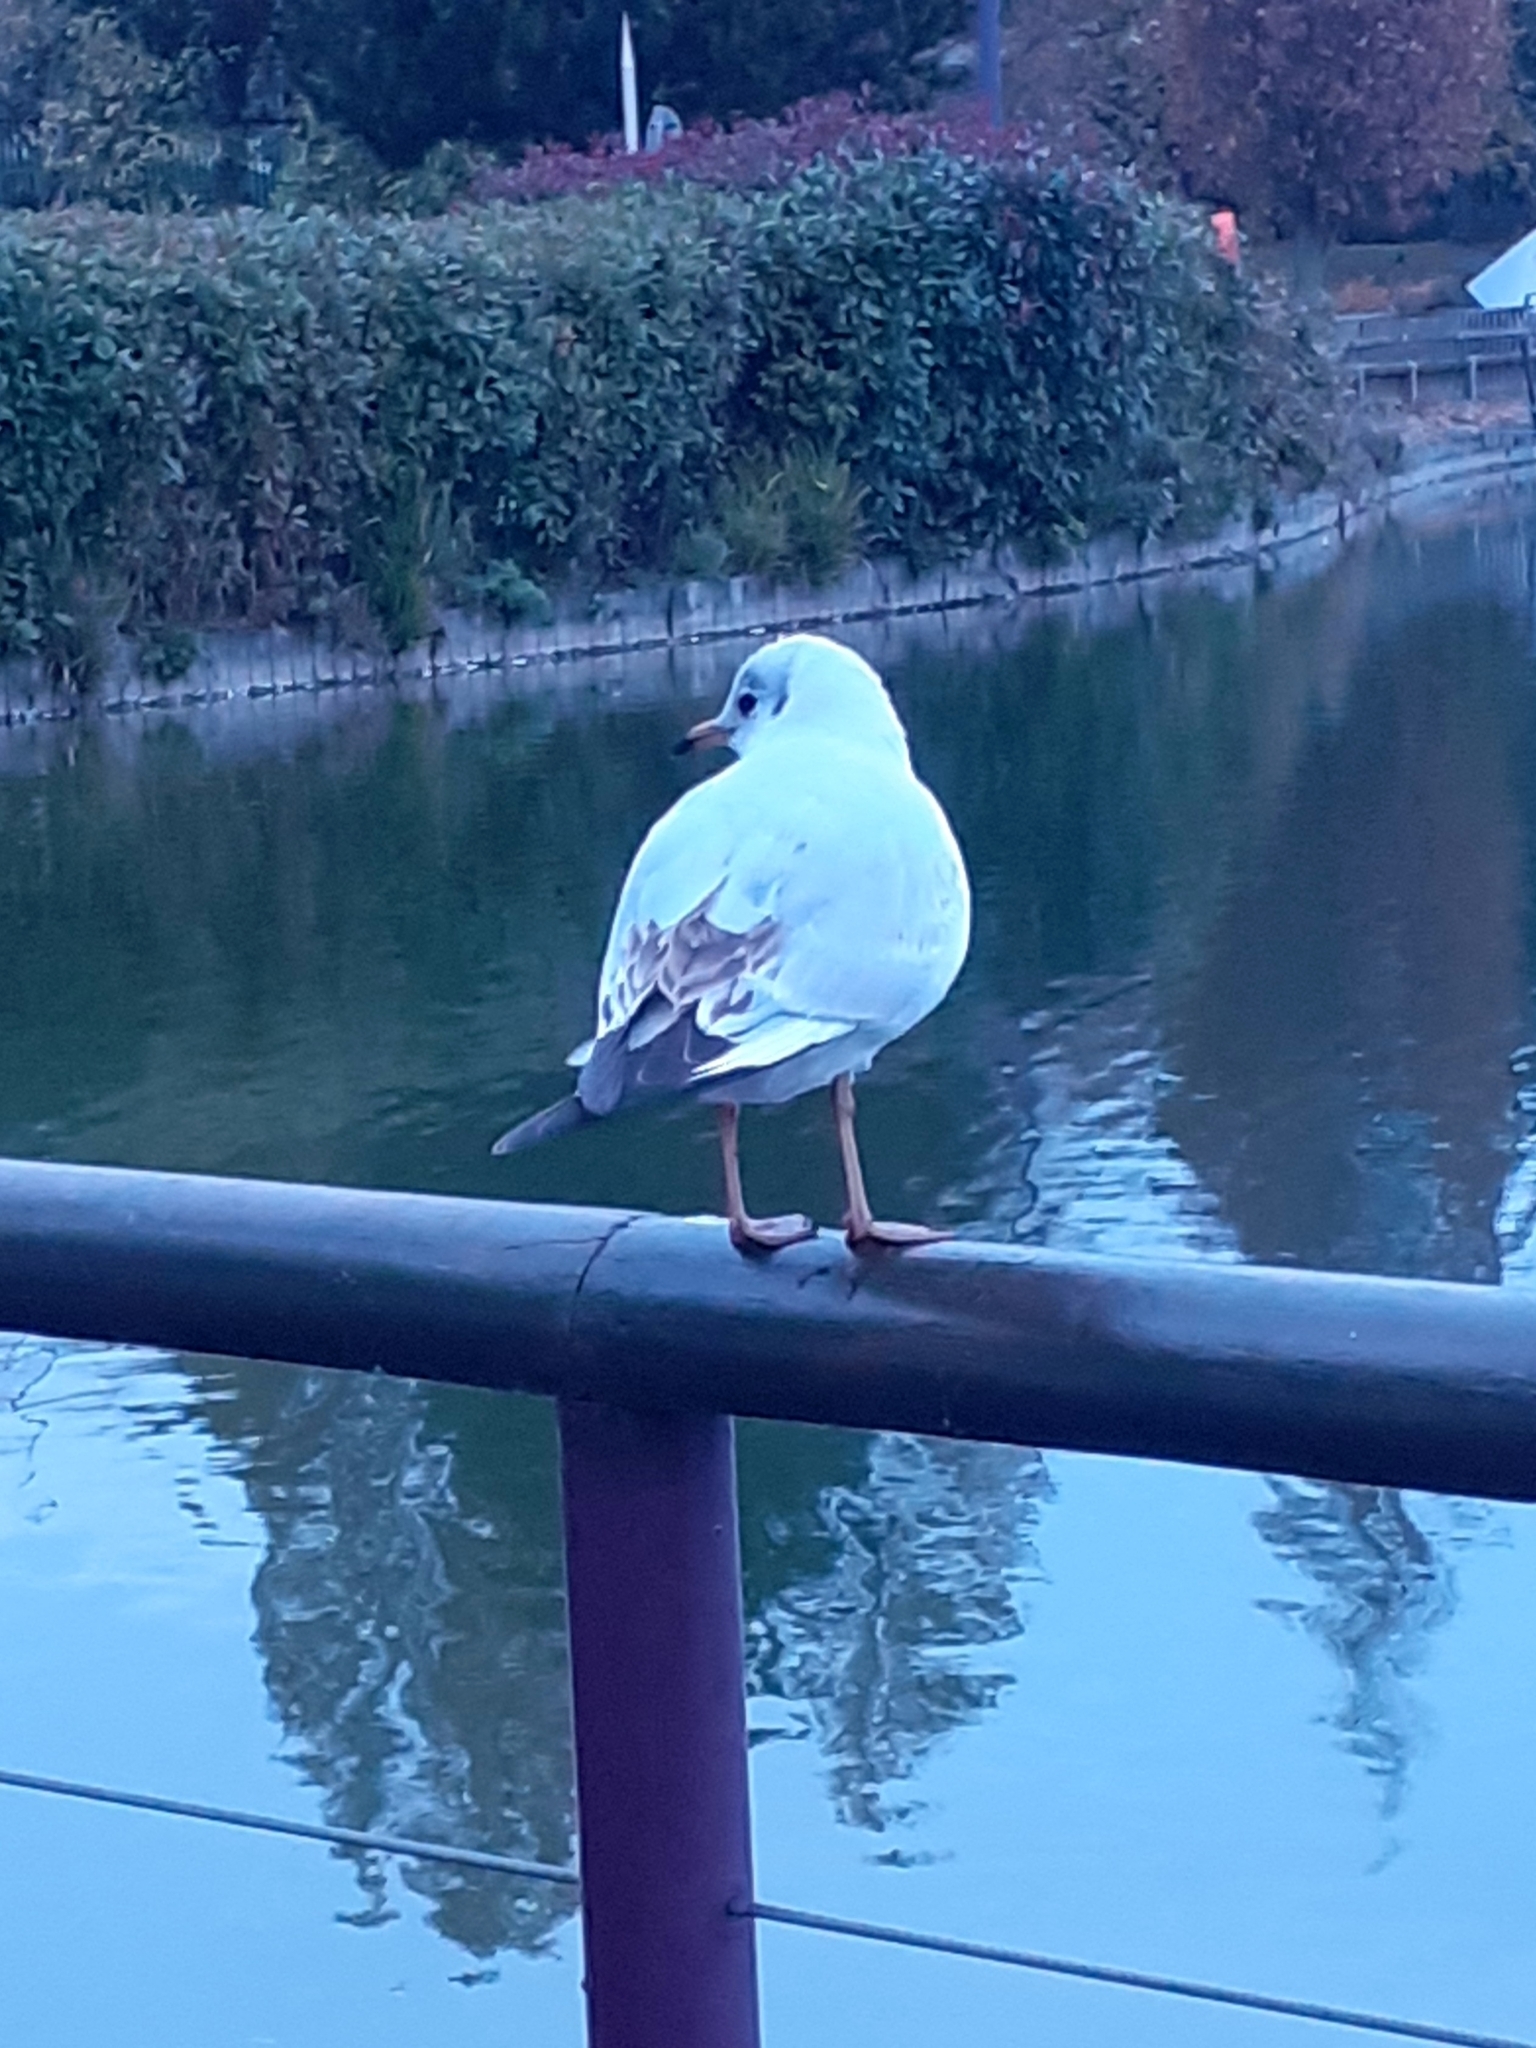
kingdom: Animalia
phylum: Chordata
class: Aves
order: Charadriiformes
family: Laridae
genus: Chroicocephalus
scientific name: Chroicocephalus ridibundus
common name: Black-headed gull
